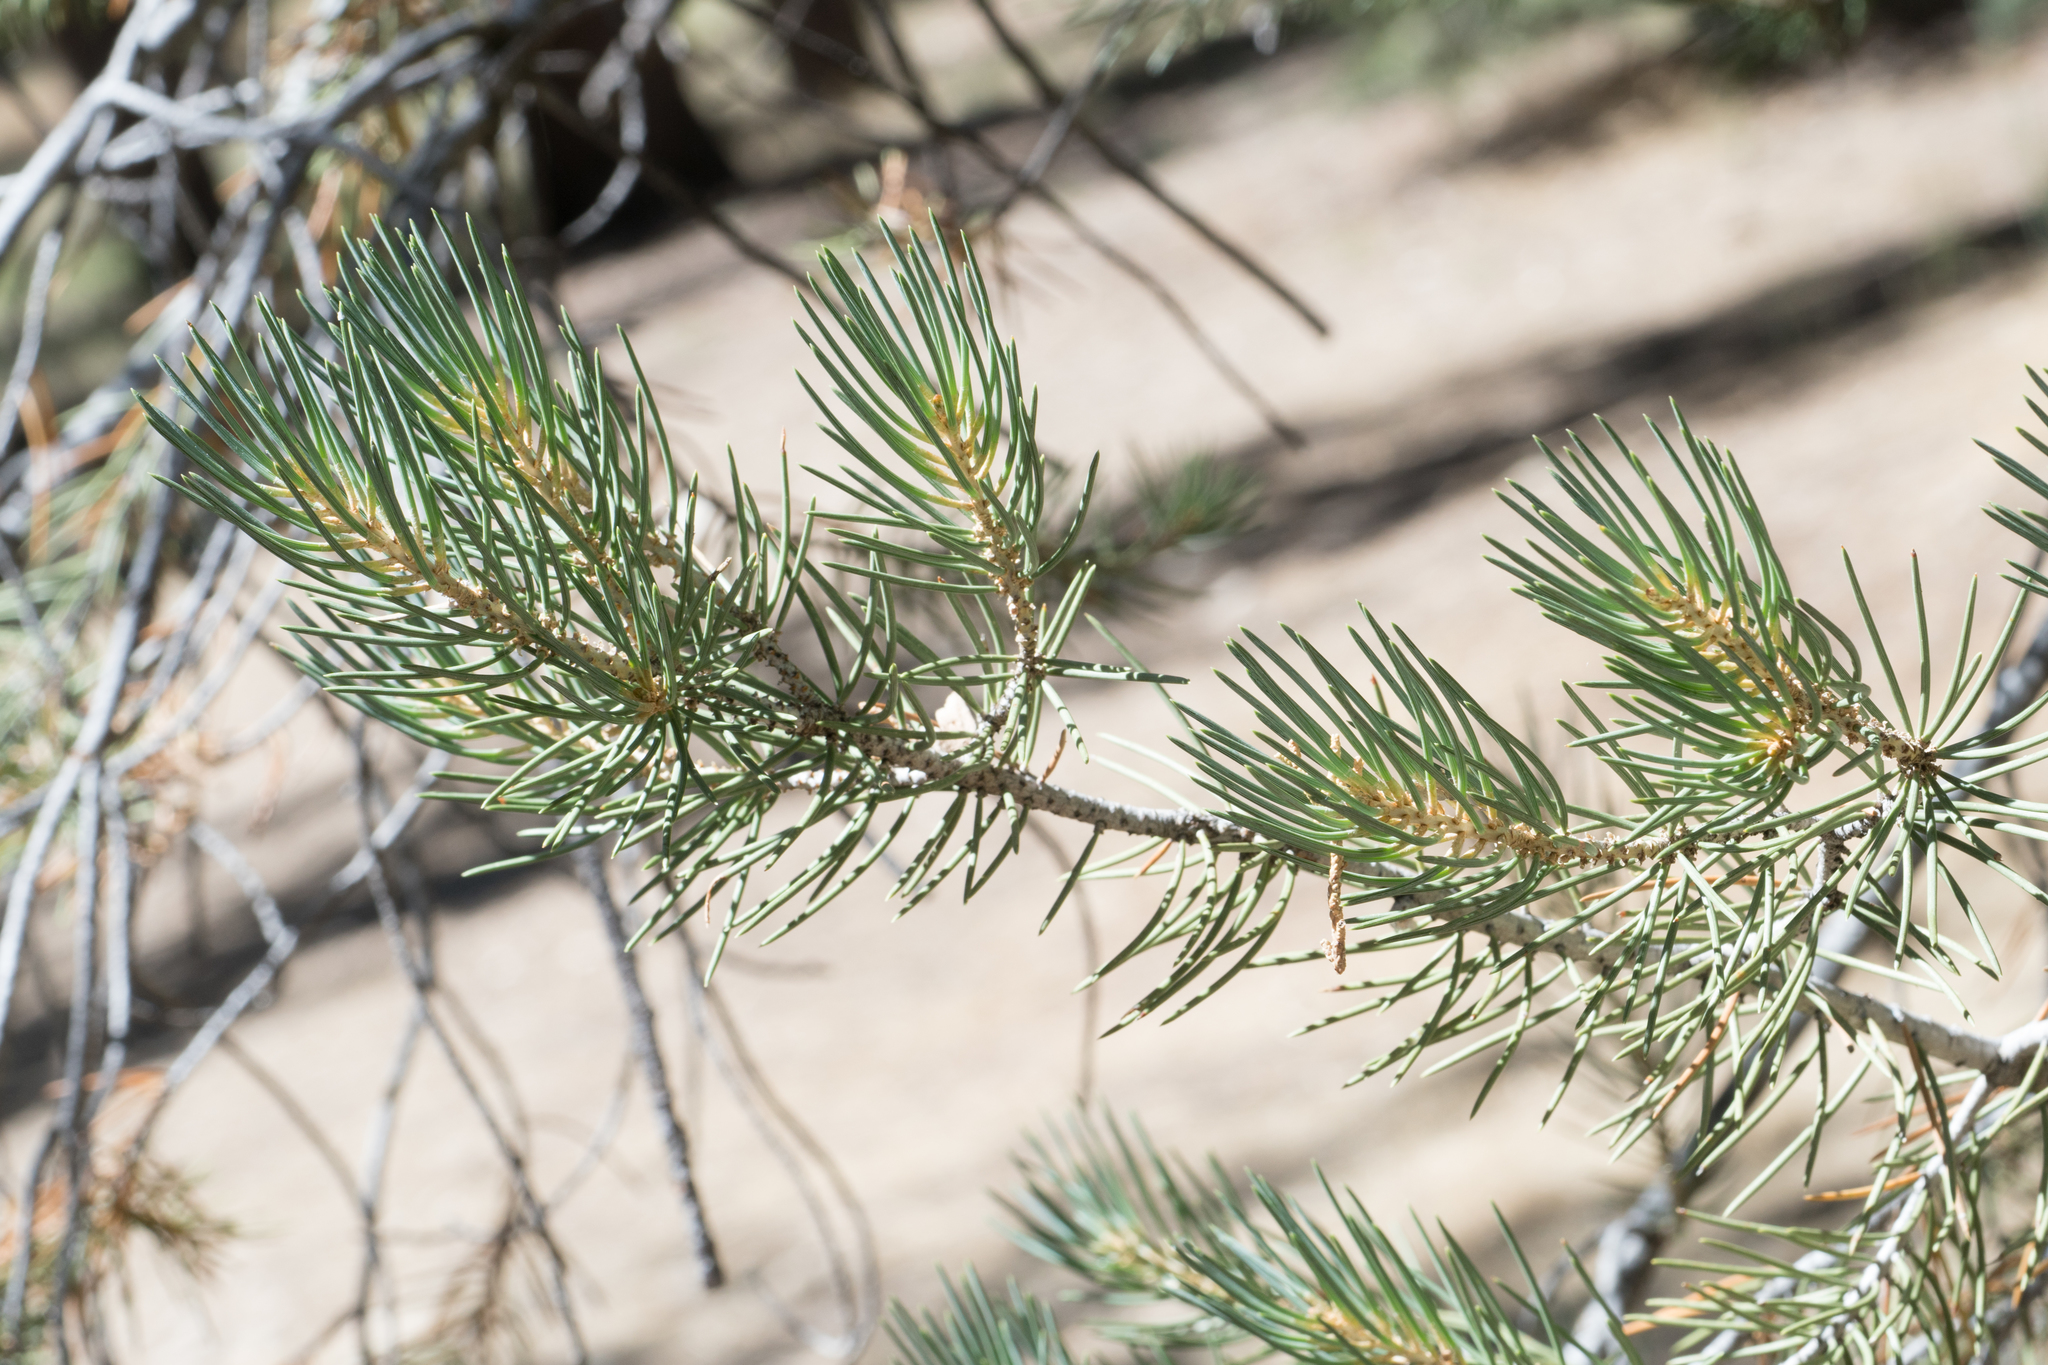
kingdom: Plantae
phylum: Tracheophyta
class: Pinopsida
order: Pinales
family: Pinaceae
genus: Pinus
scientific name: Pinus monophylla
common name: One-leaved nut pine
